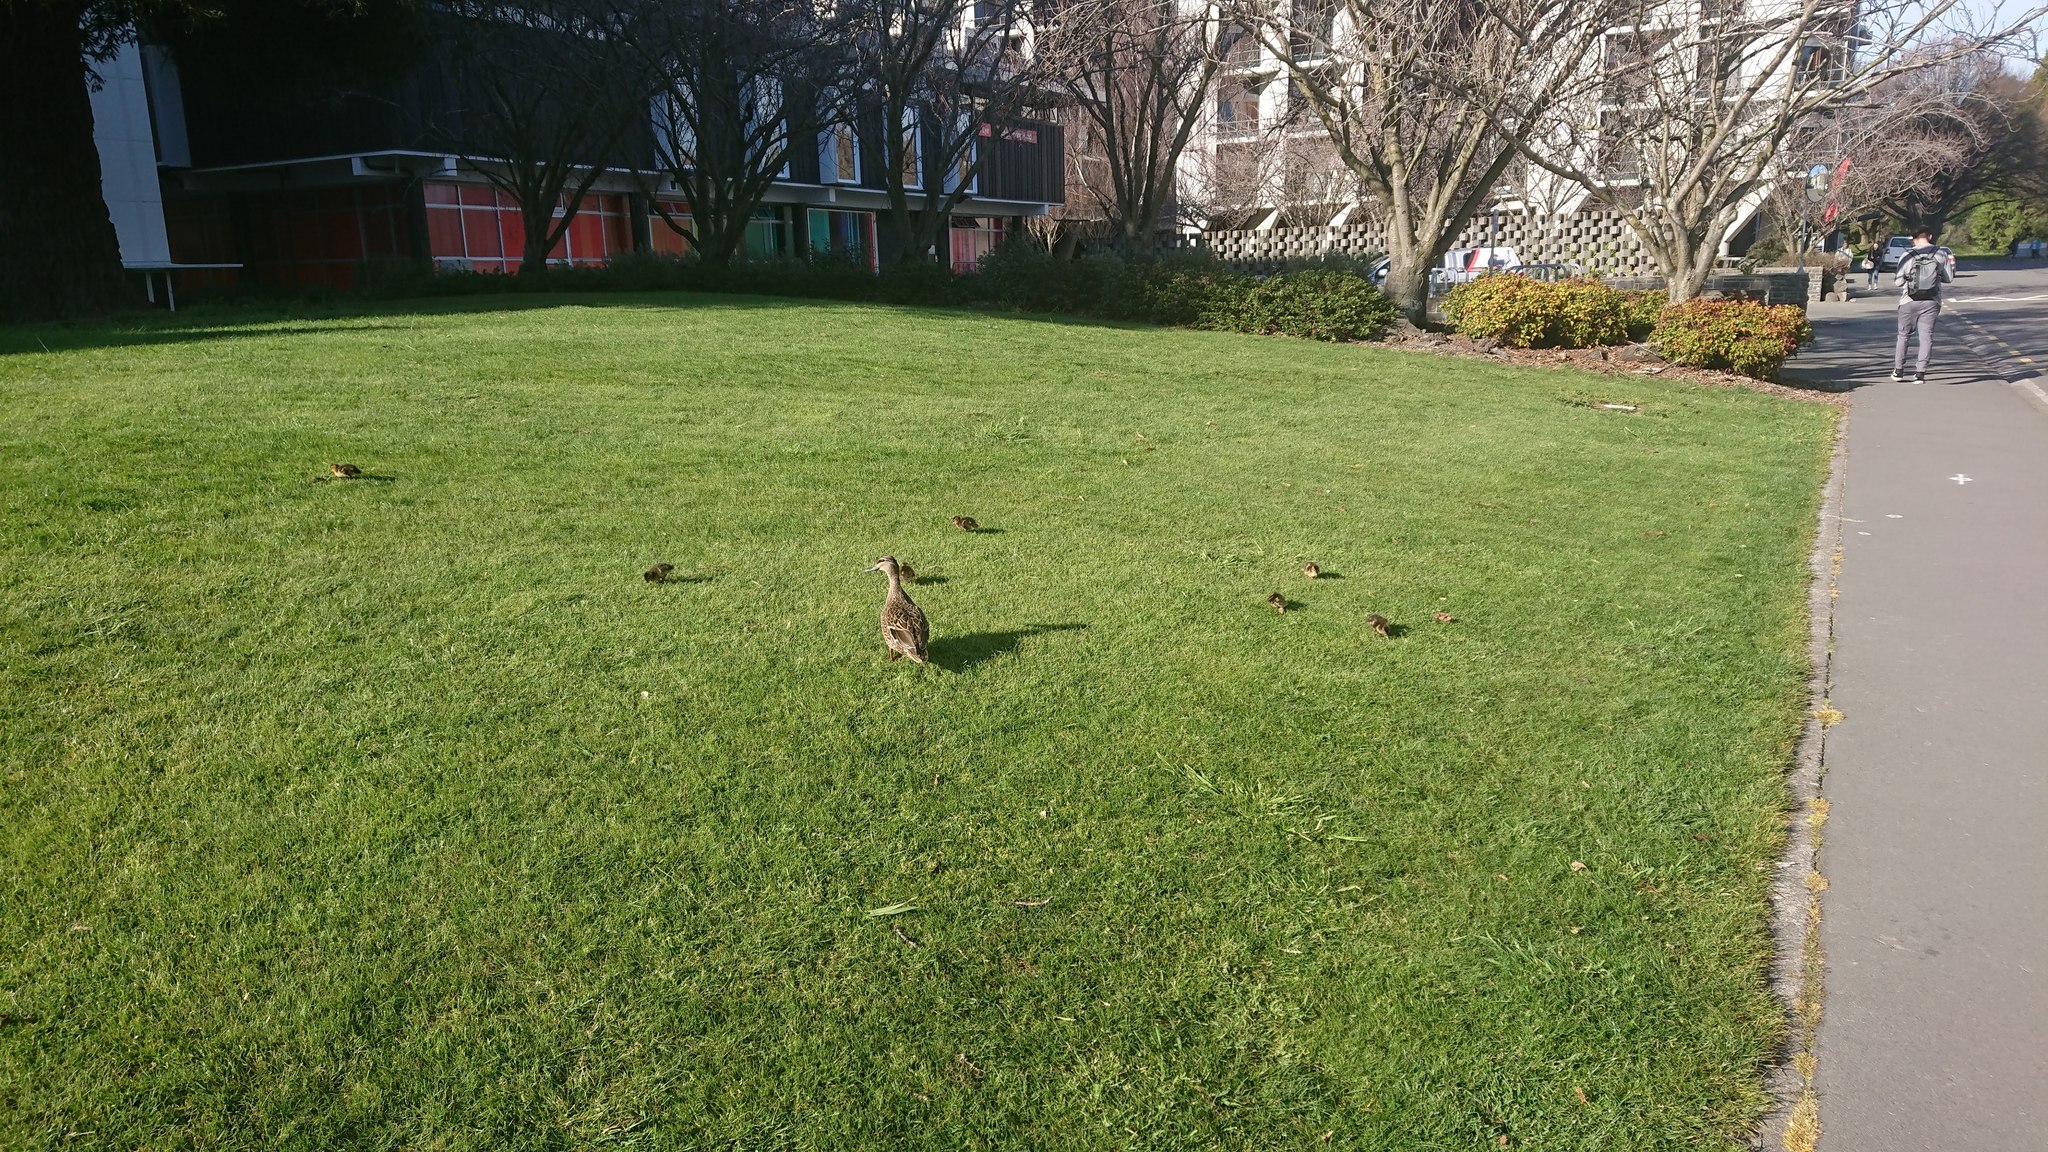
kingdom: Animalia
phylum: Chordata
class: Aves
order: Anseriformes
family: Anatidae
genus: Anas
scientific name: Anas
